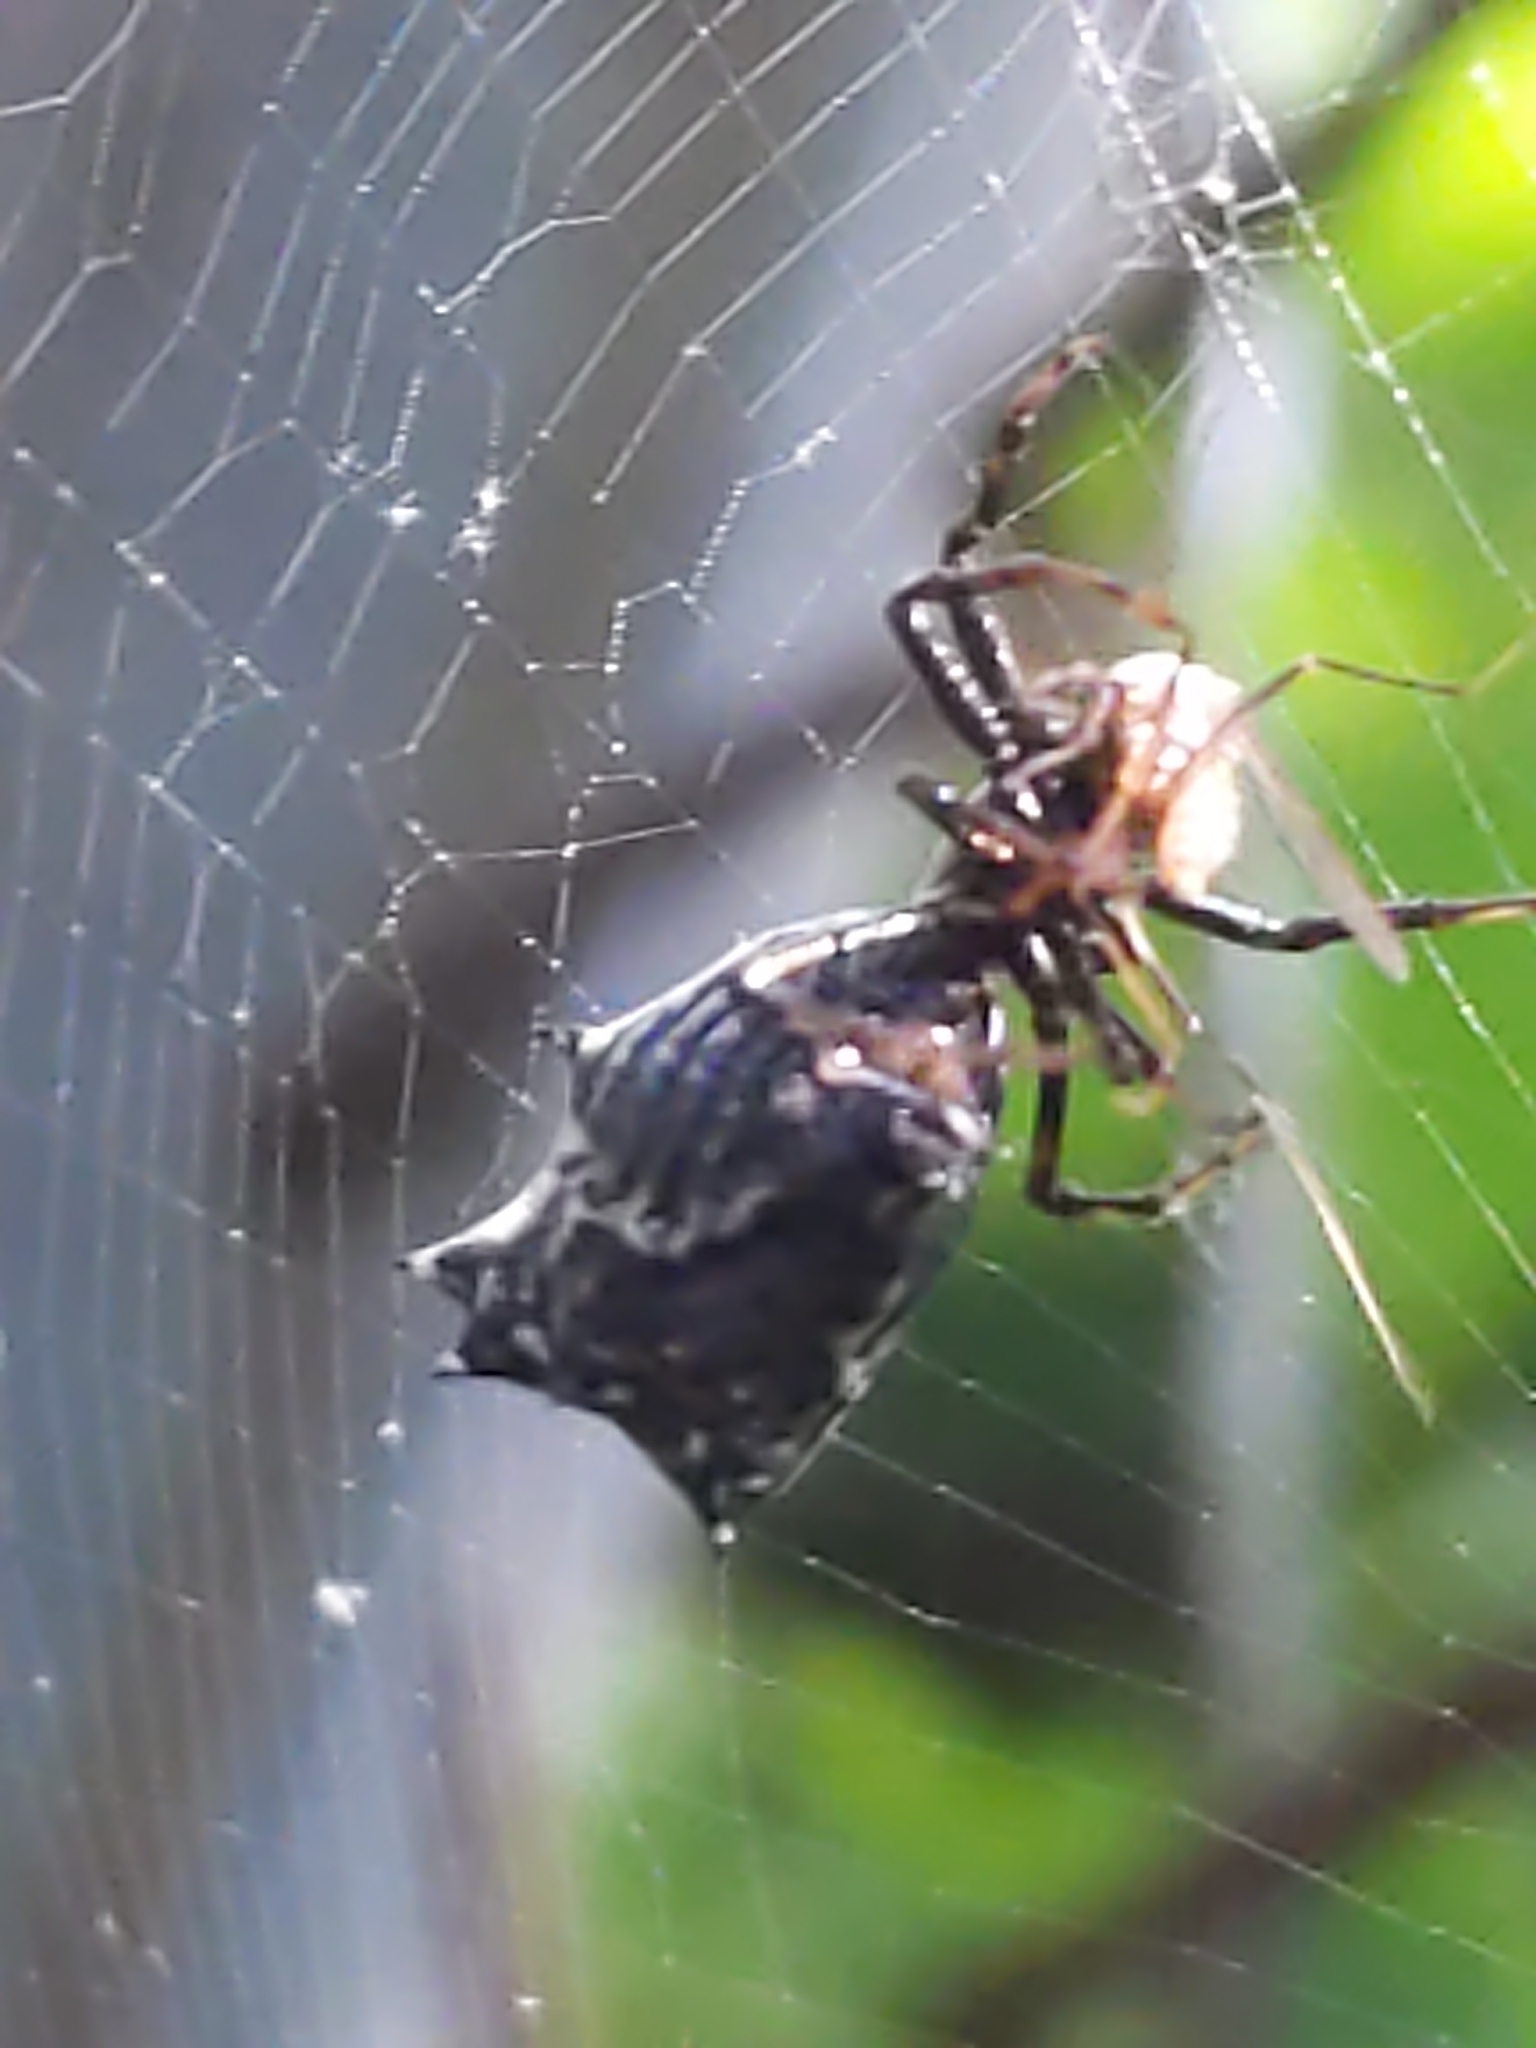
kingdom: Animalia
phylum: Arthropoda
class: Arachnida
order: Araneae
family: Araneidae
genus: Micrathena
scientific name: Micrathena gracilis
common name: Orb weavers
